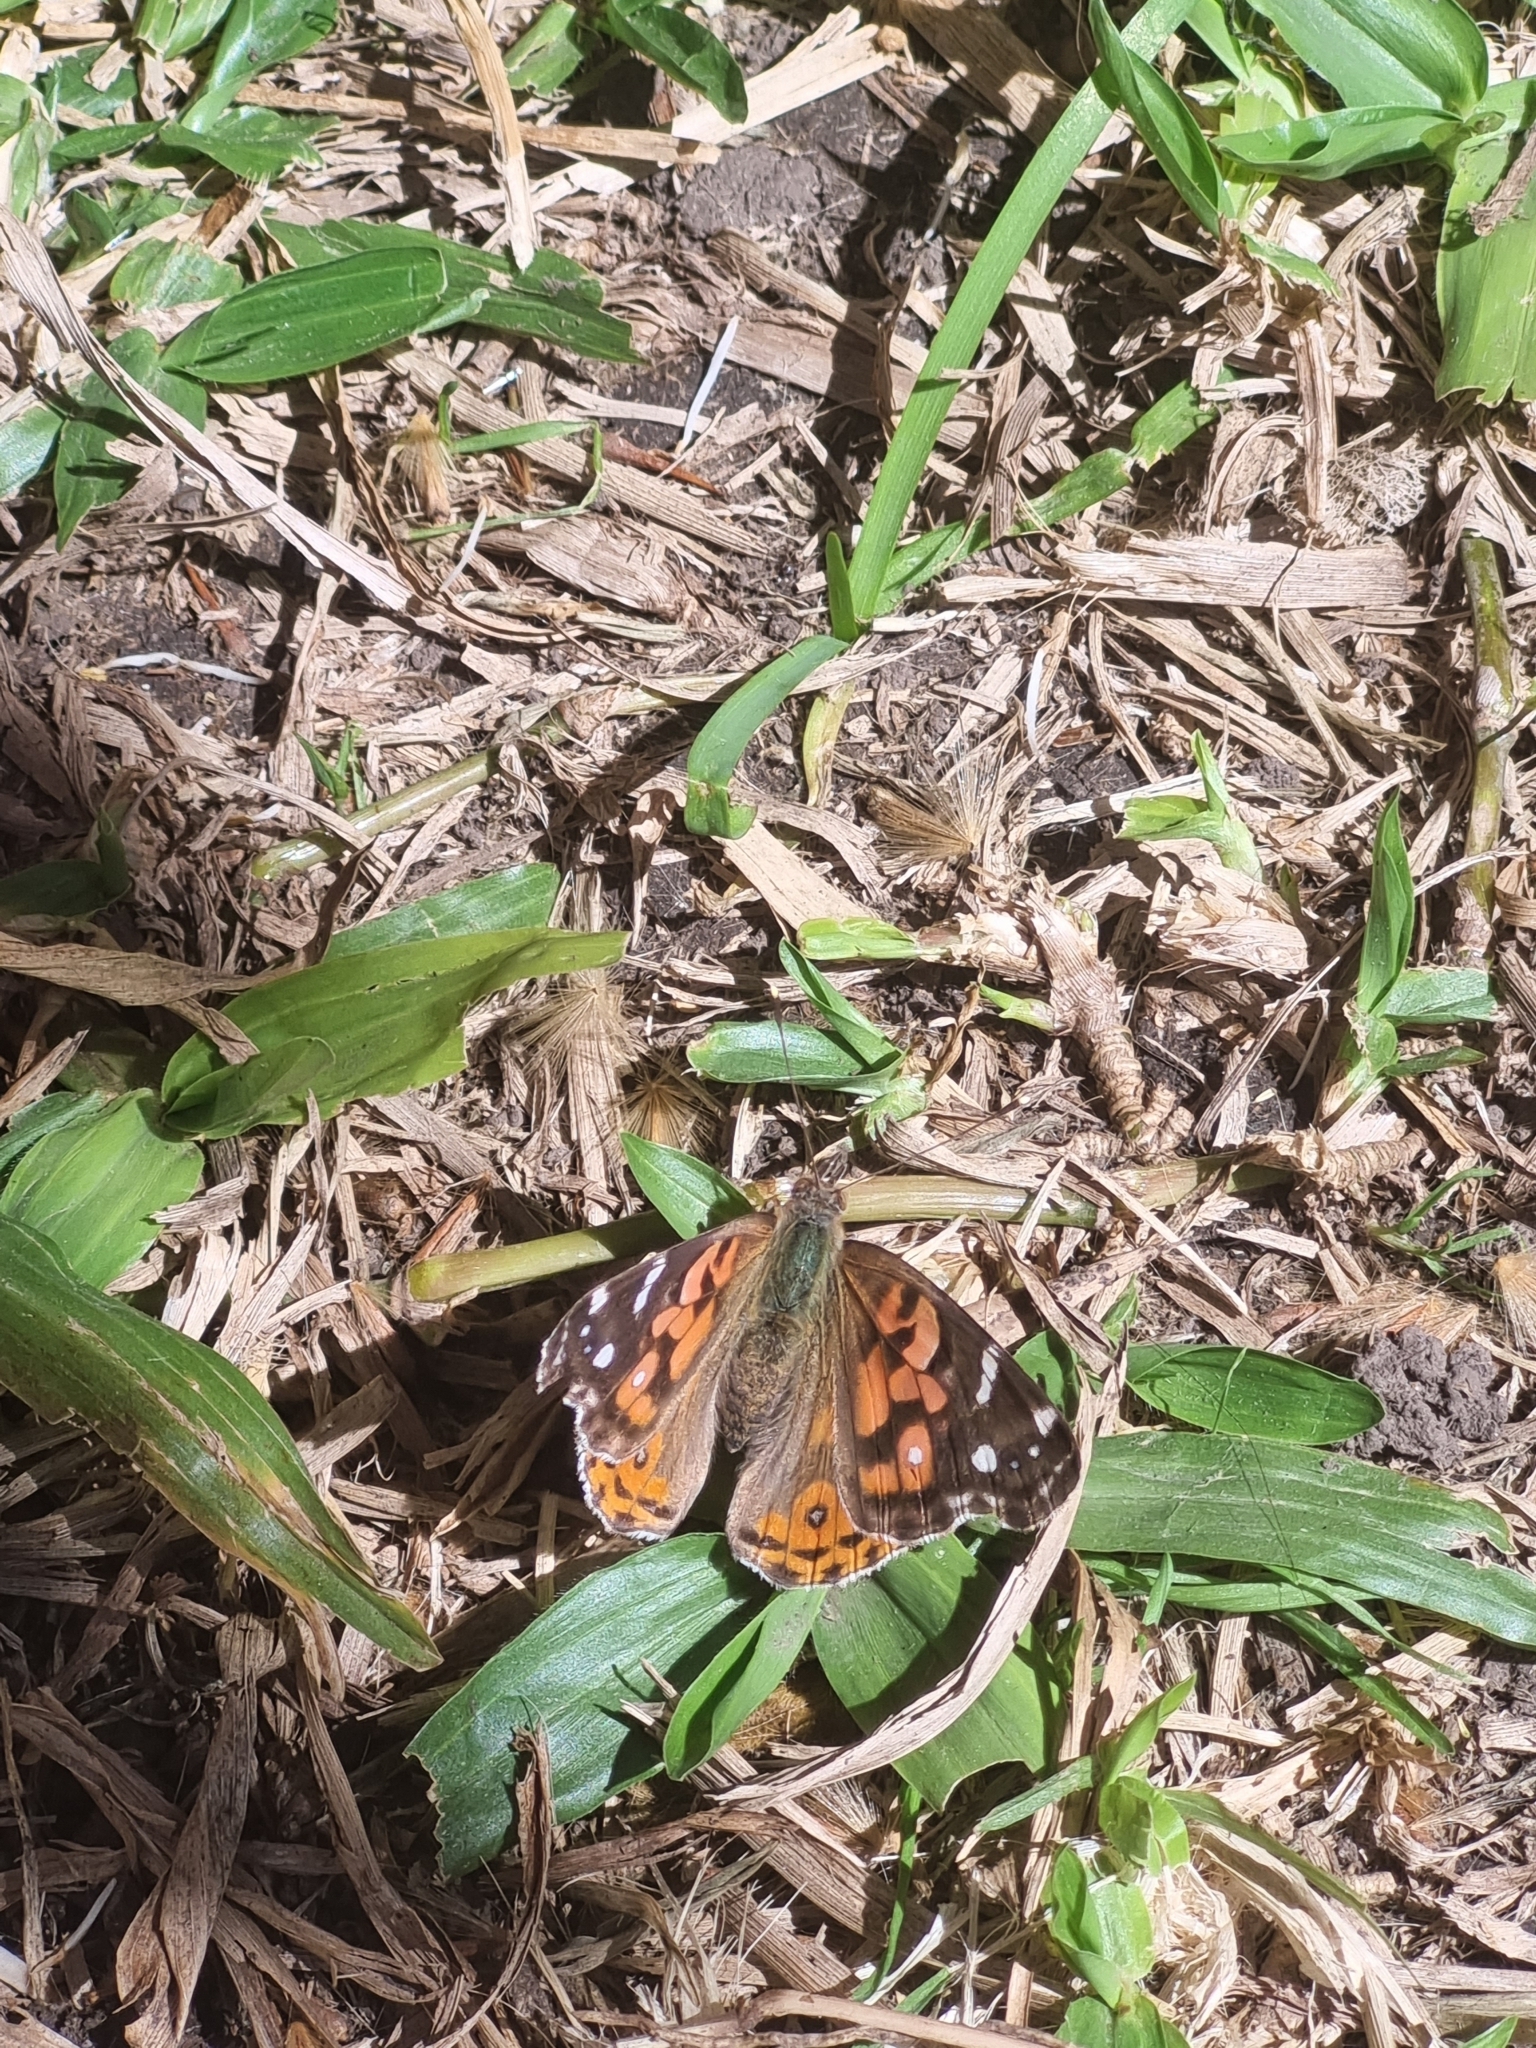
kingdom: Animalia
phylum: Arthropoda
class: Insecta
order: Lepidoptera
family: Nymphalidae
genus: Vanessa
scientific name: Vanessa braziliensis
